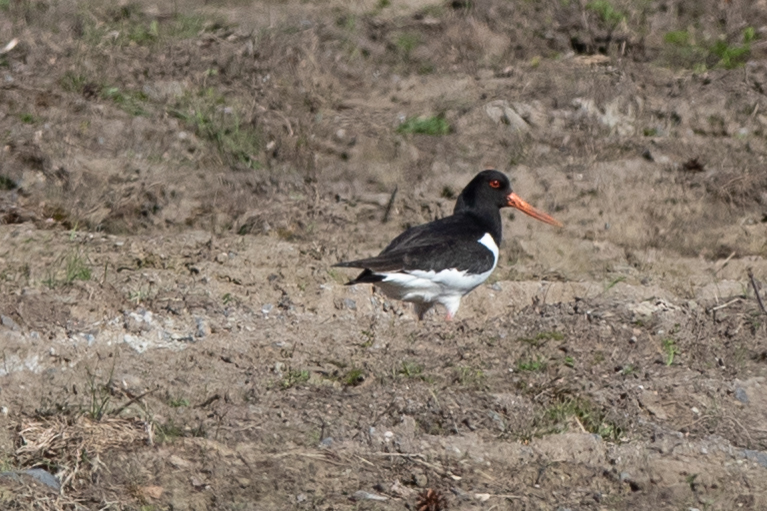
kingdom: Animalia
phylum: Chordata
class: Aves
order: Charadriiformes
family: Haematopodidae
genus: Haematopus
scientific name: Haematopus ostralegus
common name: Eurasian oystercatcher
